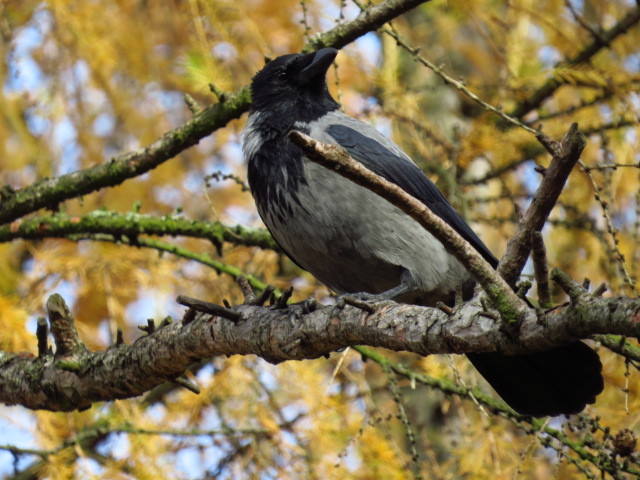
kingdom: Animalia
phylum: Chordata
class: Aves
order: Passeriformes
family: Corvidae
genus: Corvus
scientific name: Corvus cornix
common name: Hooded crow
